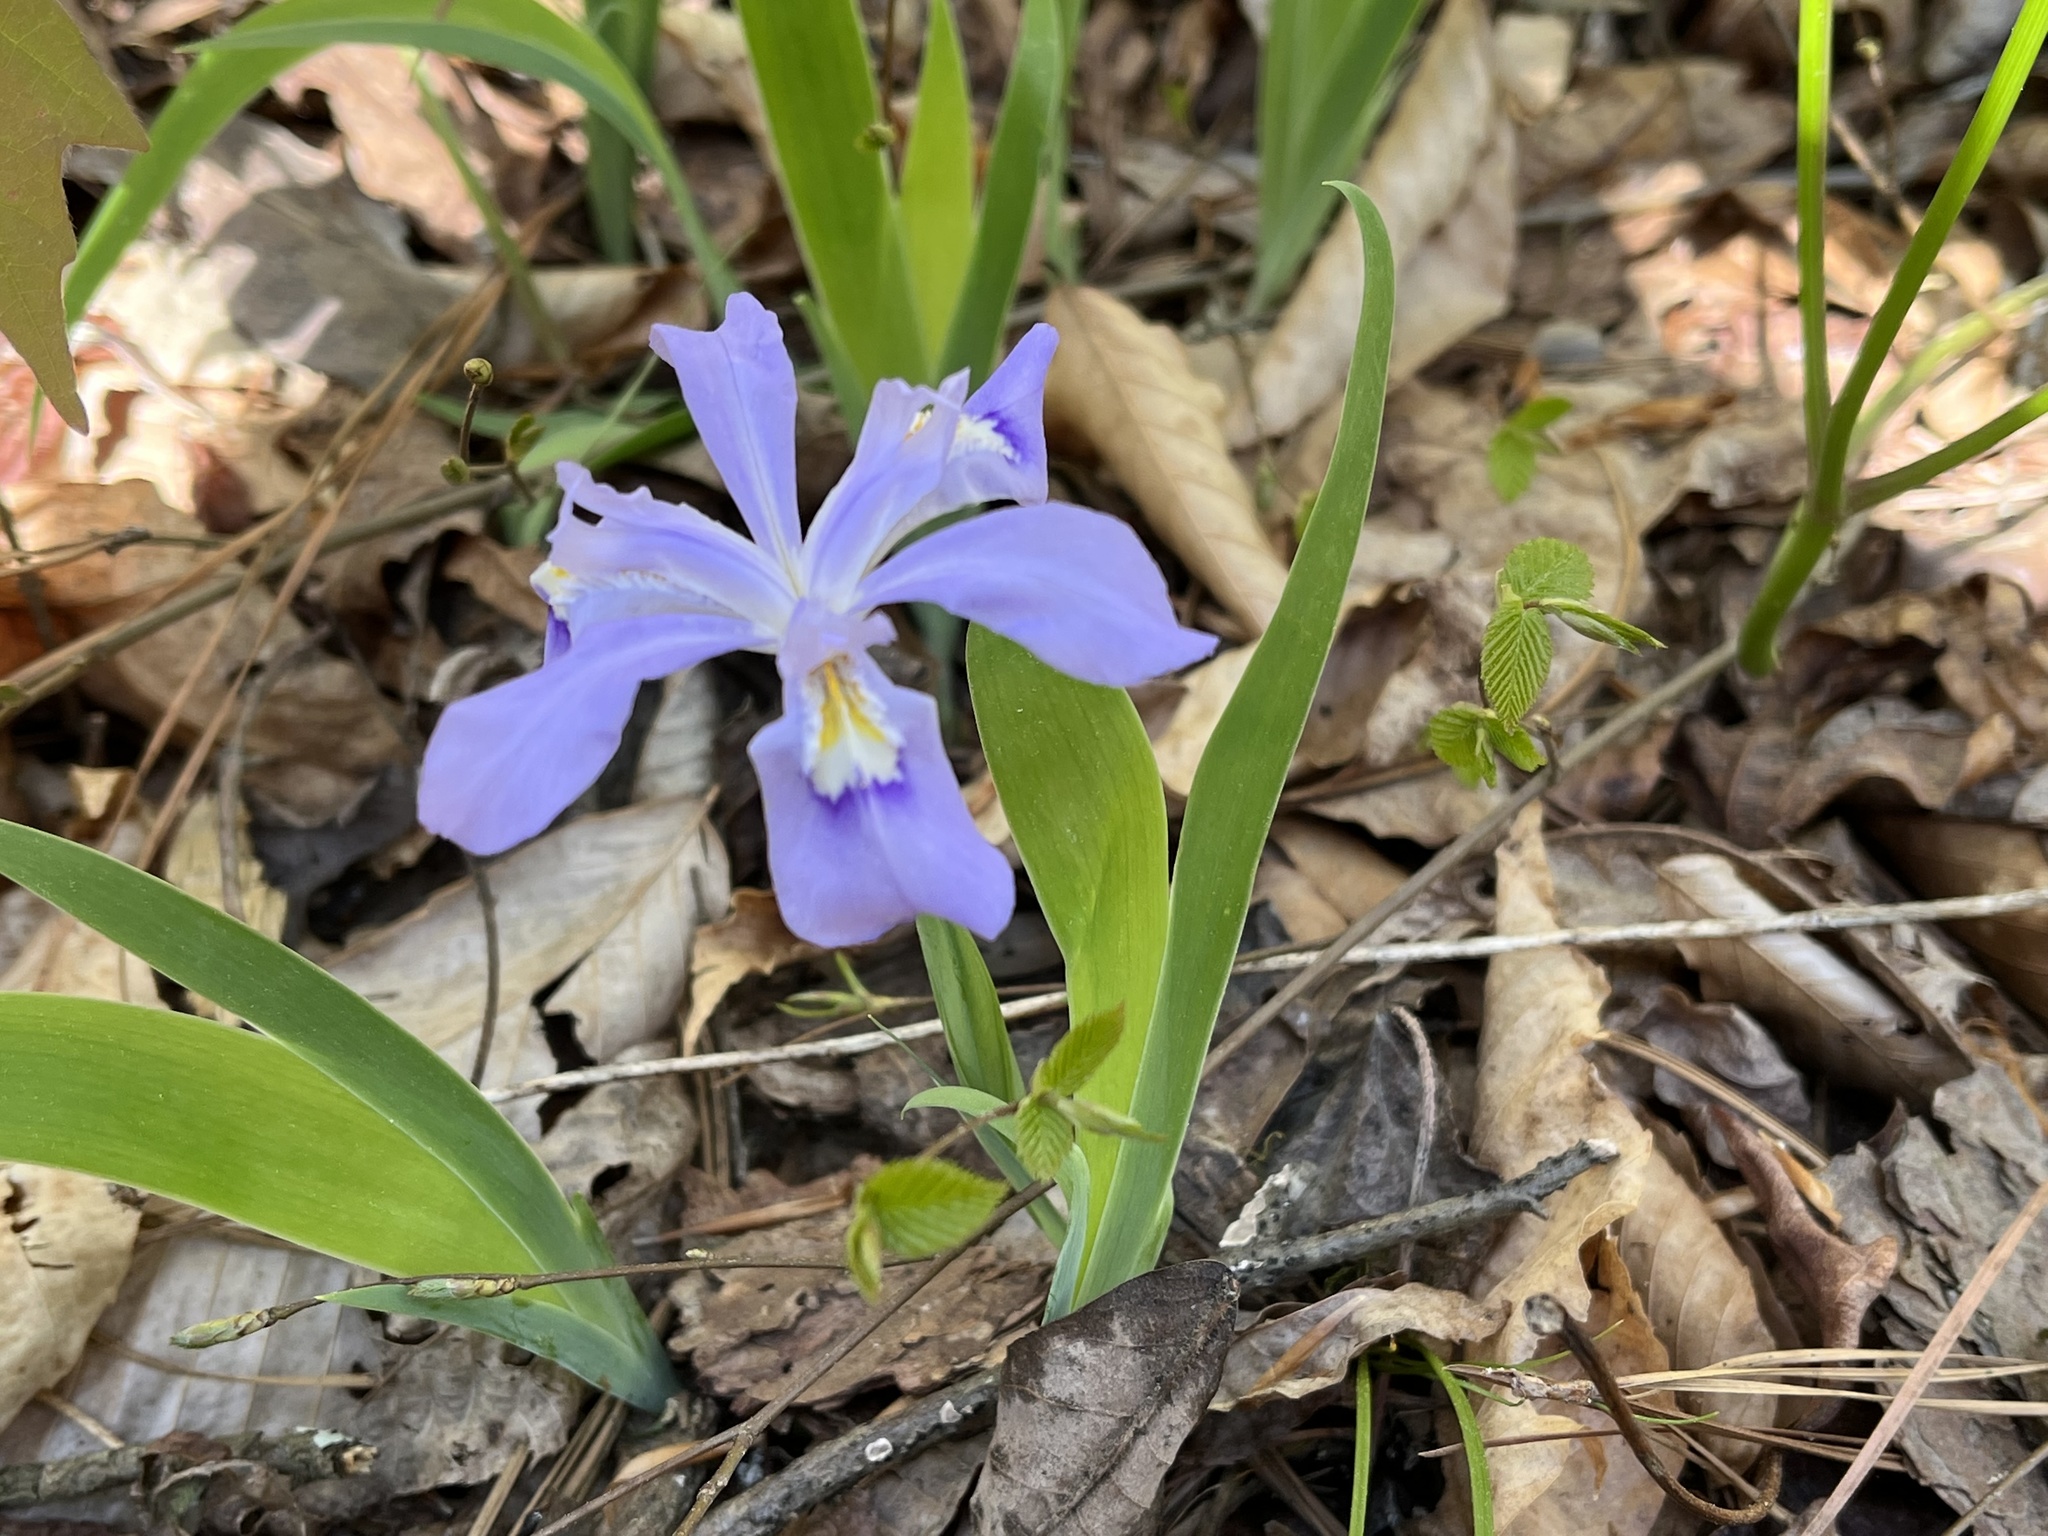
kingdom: Plantae
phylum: Tracheophyta
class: Liliopsida
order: Asparagales
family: Iridaceae
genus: Iris
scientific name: Iris cristata
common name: Crested iris
